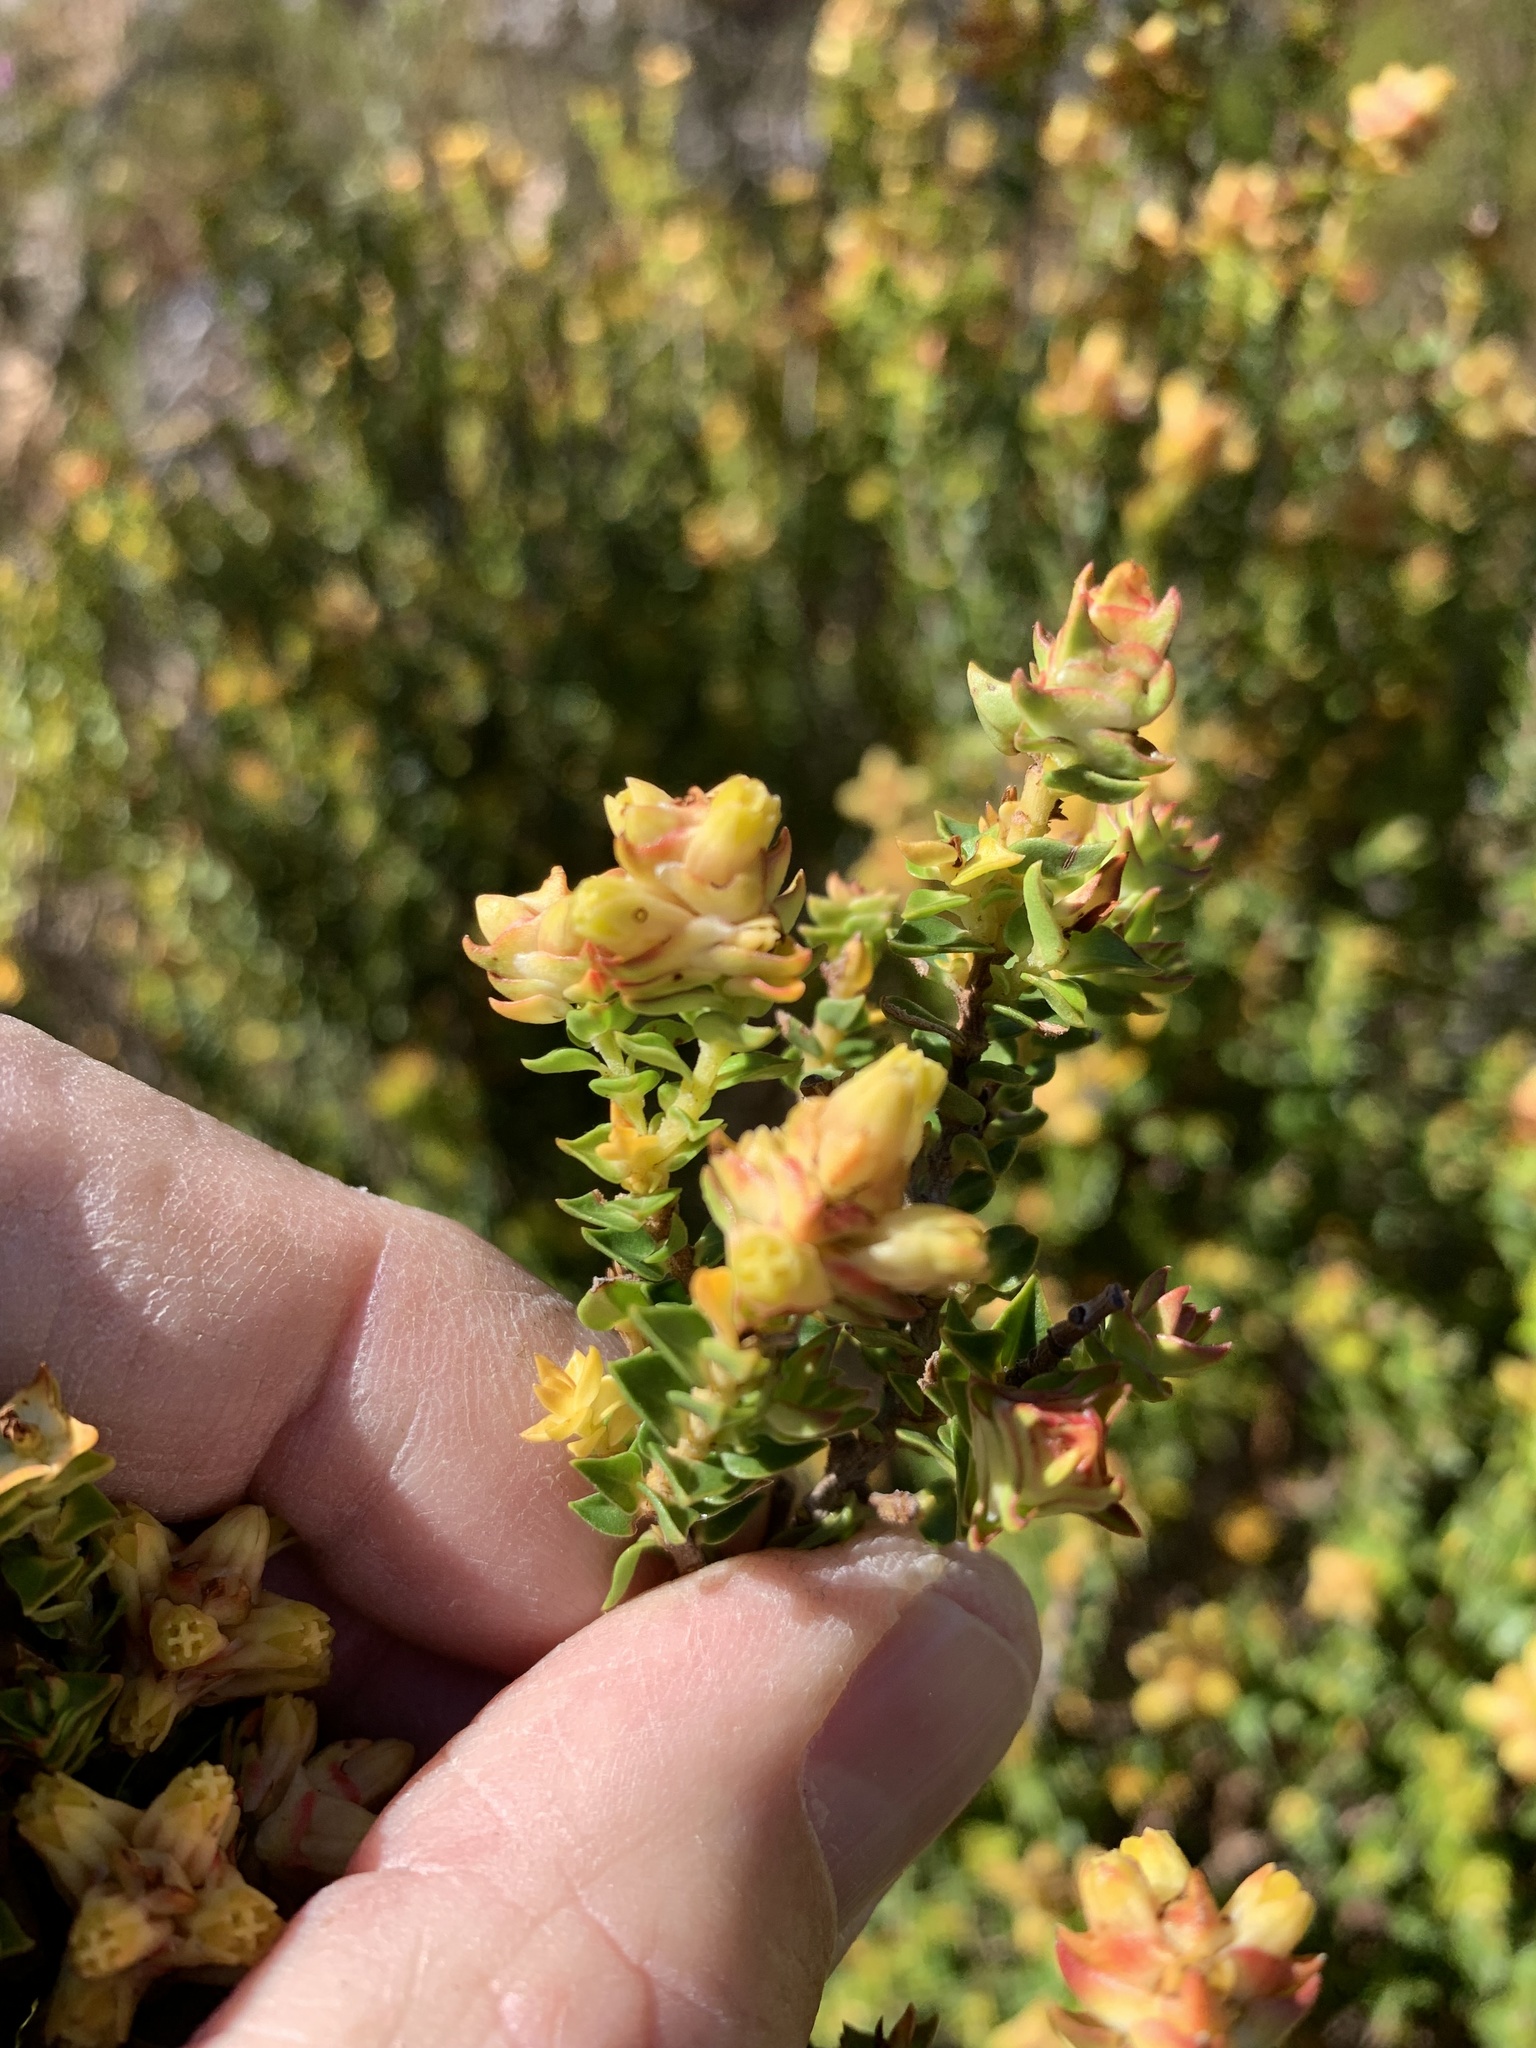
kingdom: Plantae
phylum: Tracheophyta
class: Magnoliopsida
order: Myrtales
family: Penaeaceae
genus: Penaea
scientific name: Penaea mucronata
